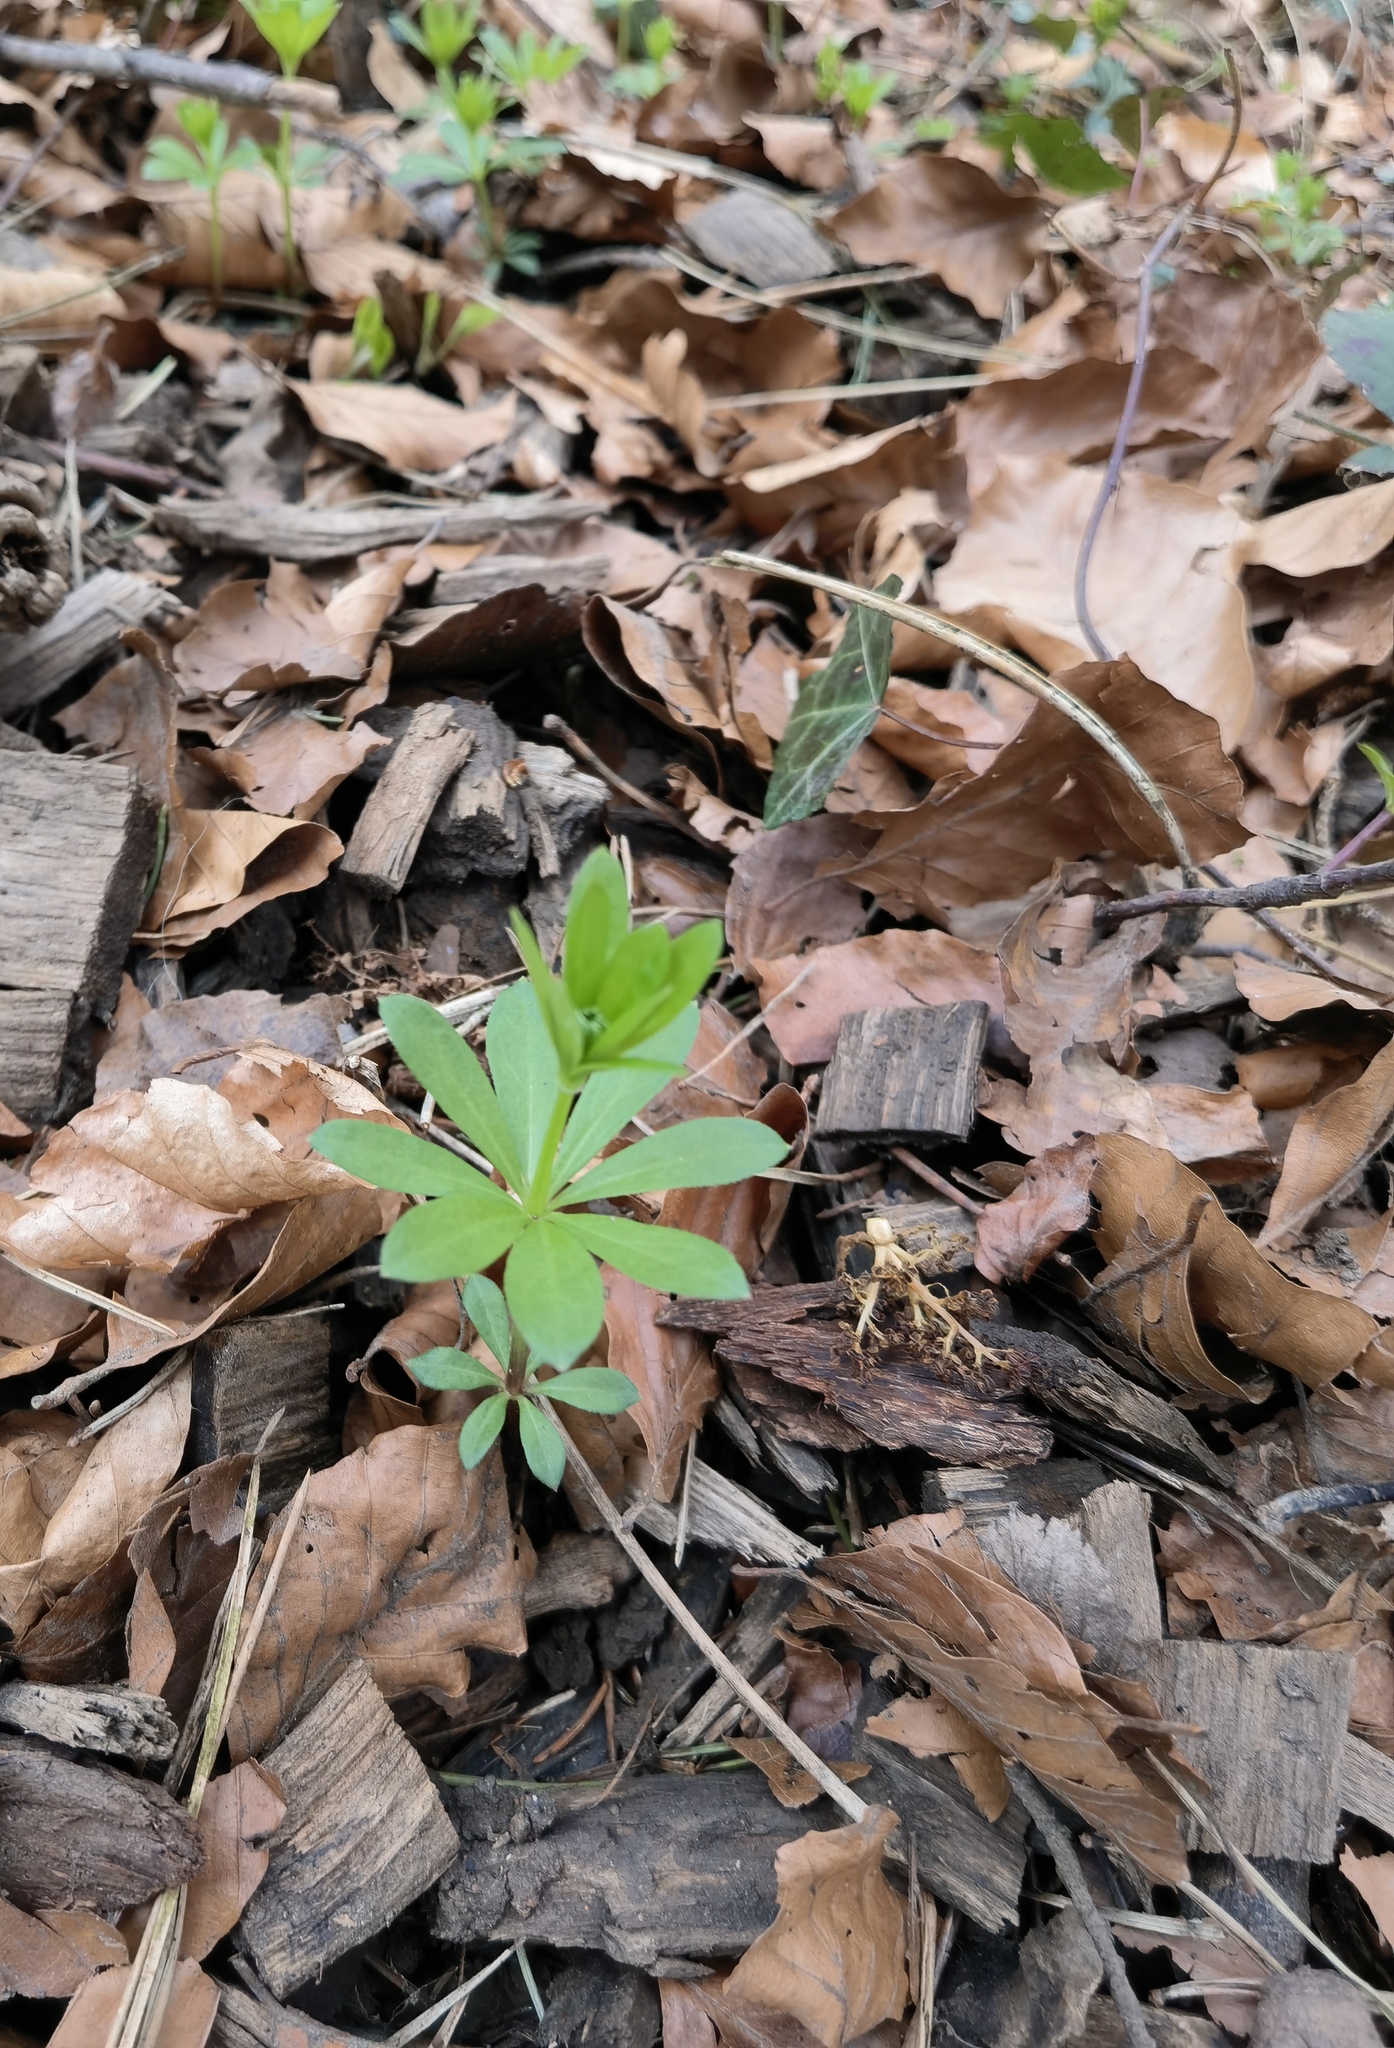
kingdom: Plantae
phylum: Tracheophyta
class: Magnoliopsida
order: Gentianales
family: Rubiaceae
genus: Galium
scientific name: Galium odoratum
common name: Sweet woodruff
